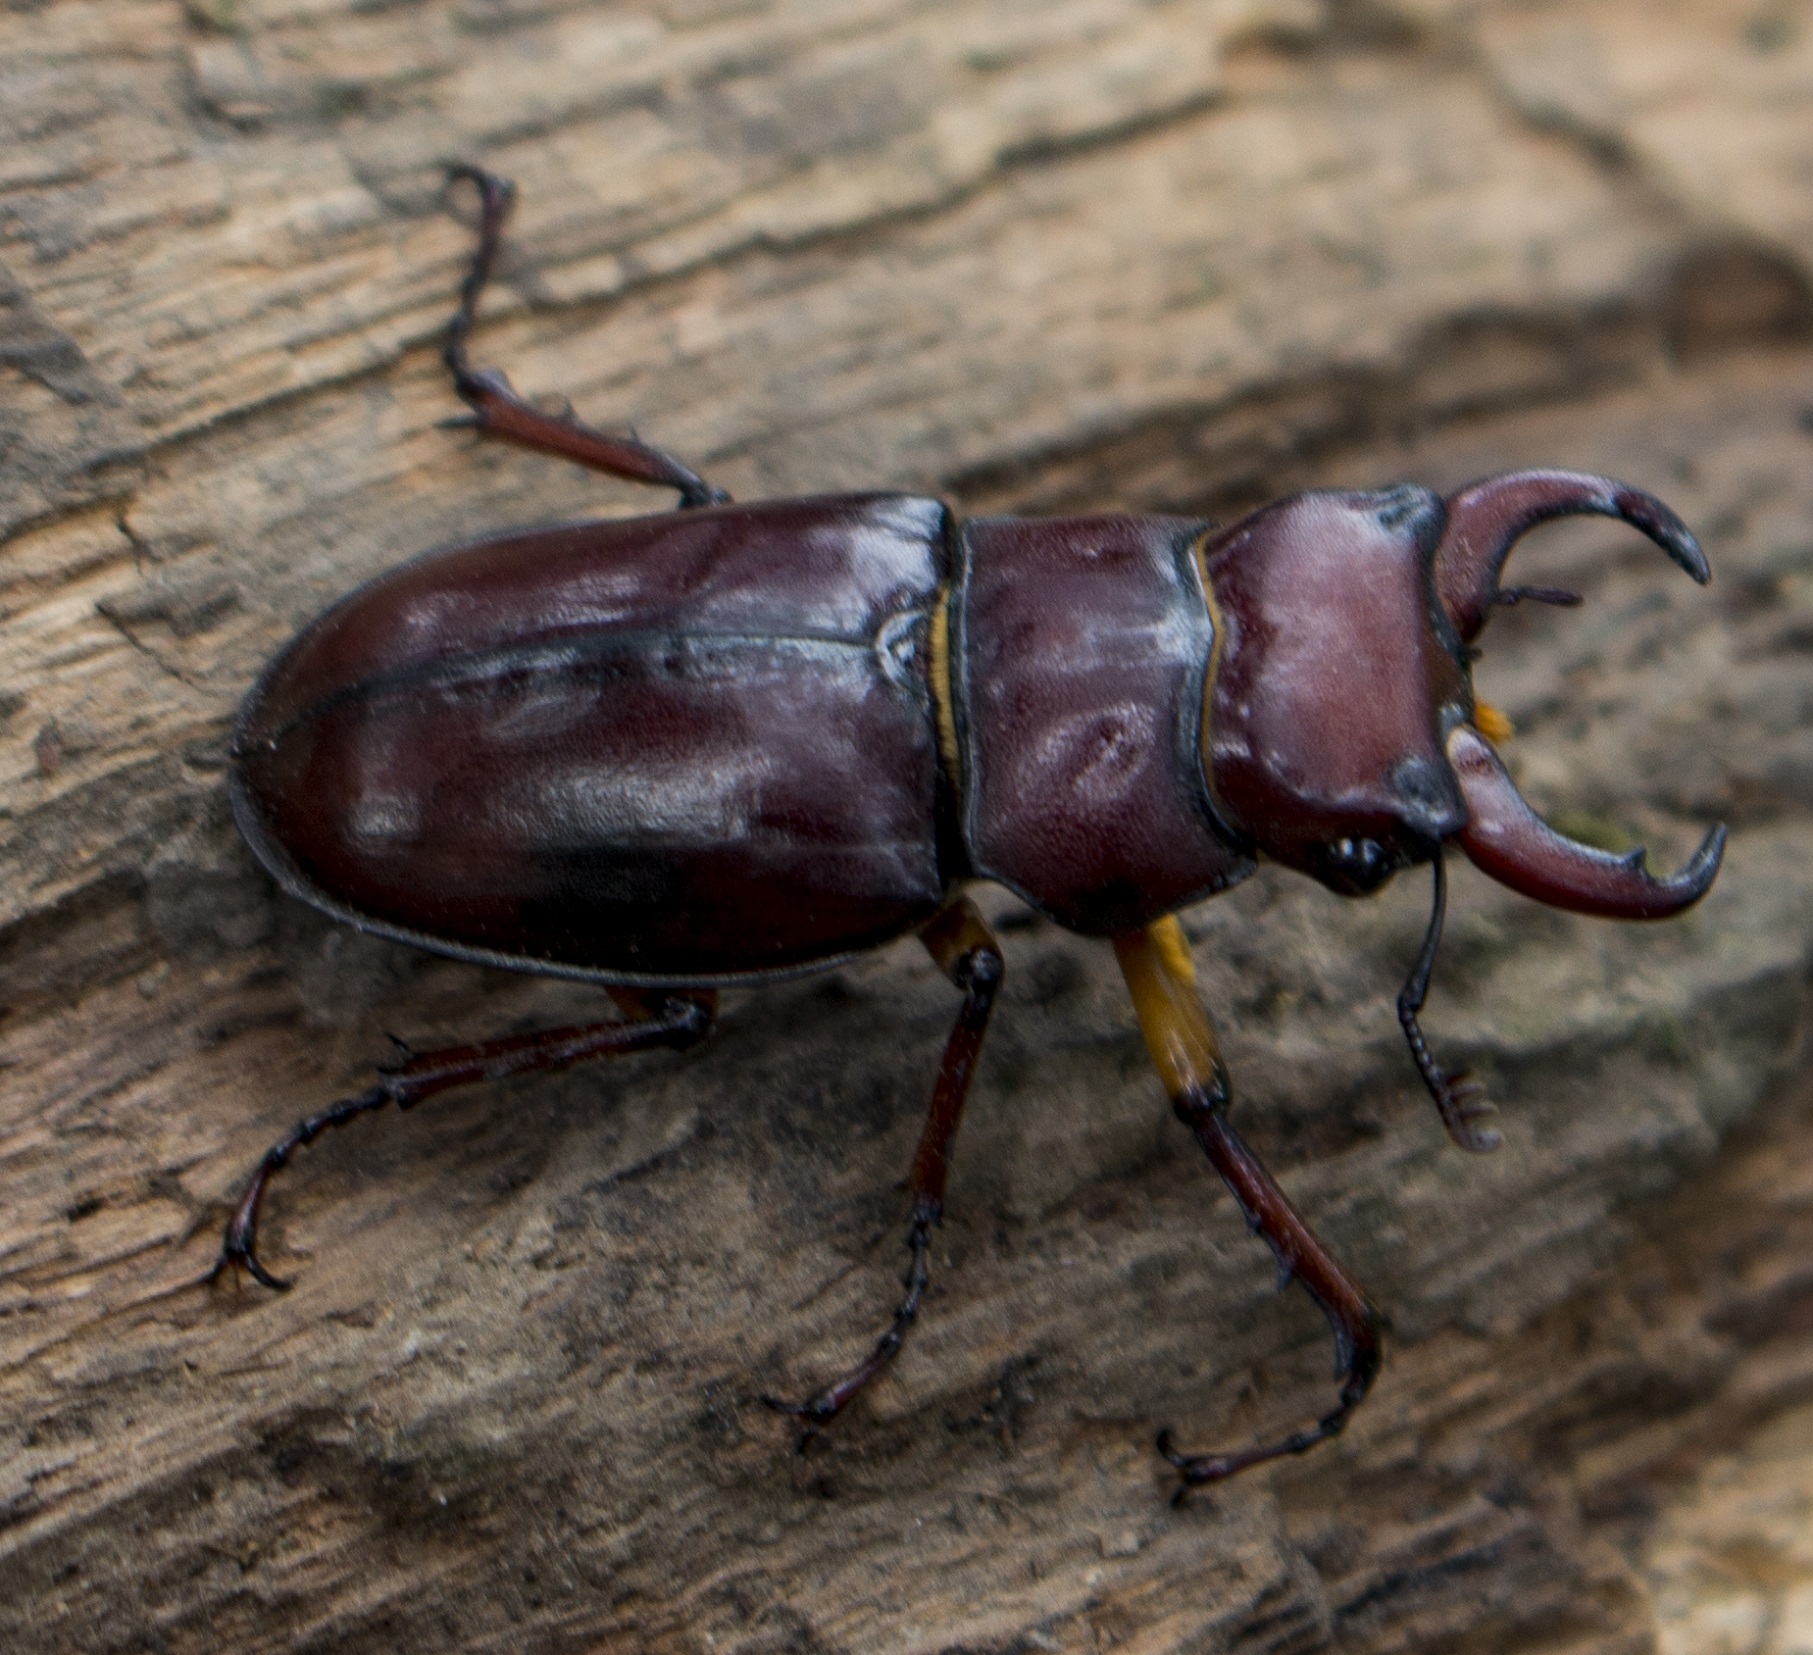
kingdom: Animalia
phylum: Arthropoda
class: Insecta
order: Coleoptera
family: Lucanidae
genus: Lucanus
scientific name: Lucanus capreolus
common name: Stag beetle
